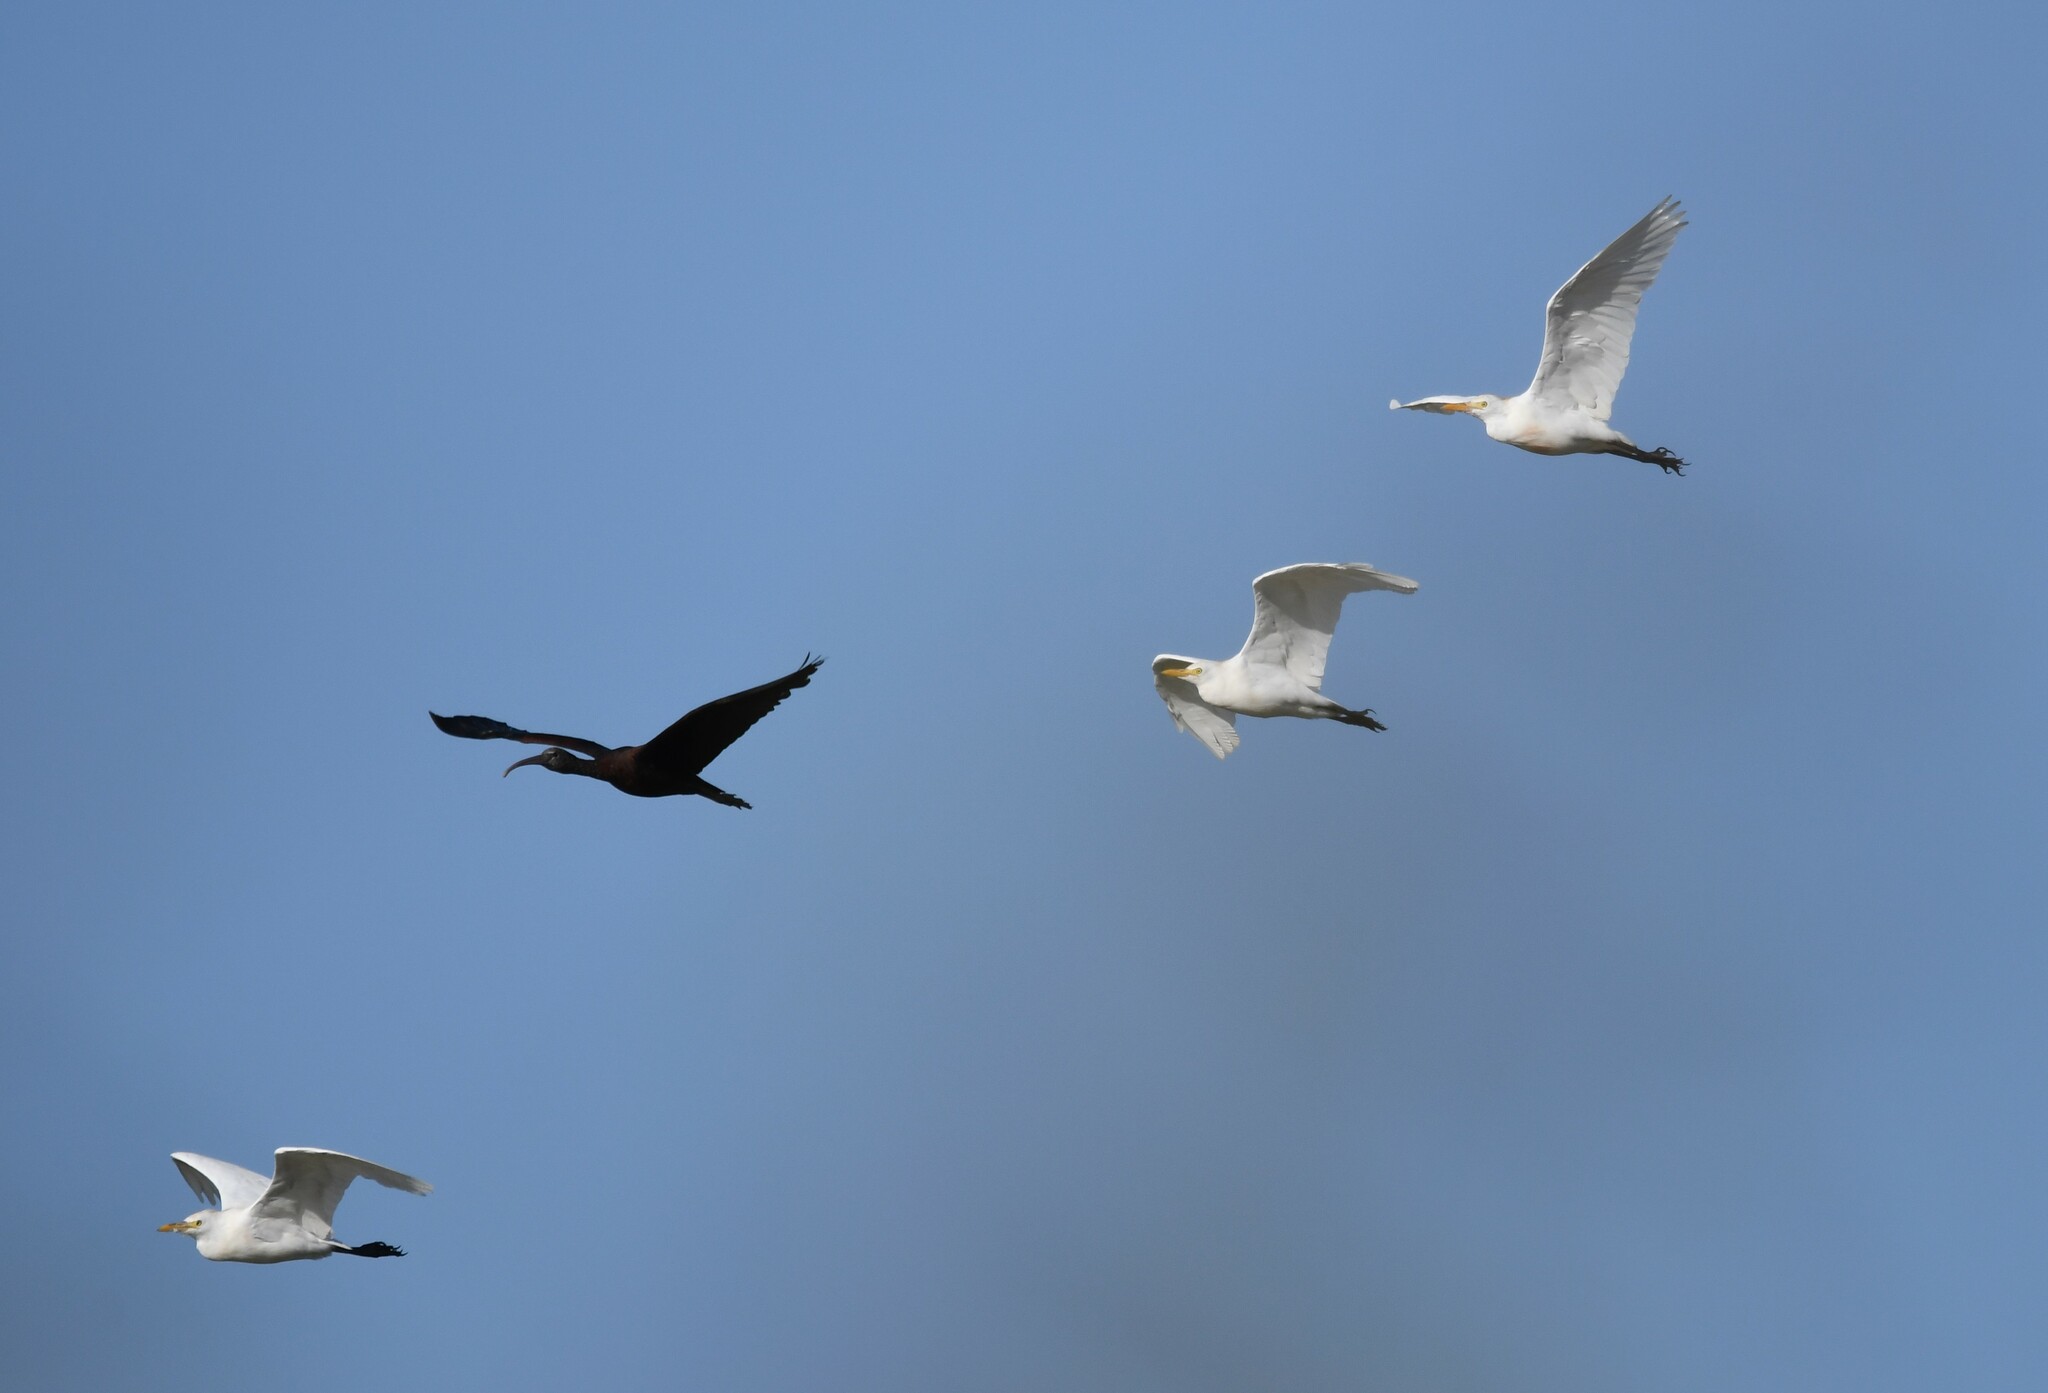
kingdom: Animalia
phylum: Chordata
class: Aves
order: Pelecaniformes
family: Ardeidae
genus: Bubulcus
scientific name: Bubulcus ibis
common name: Cattle egret
